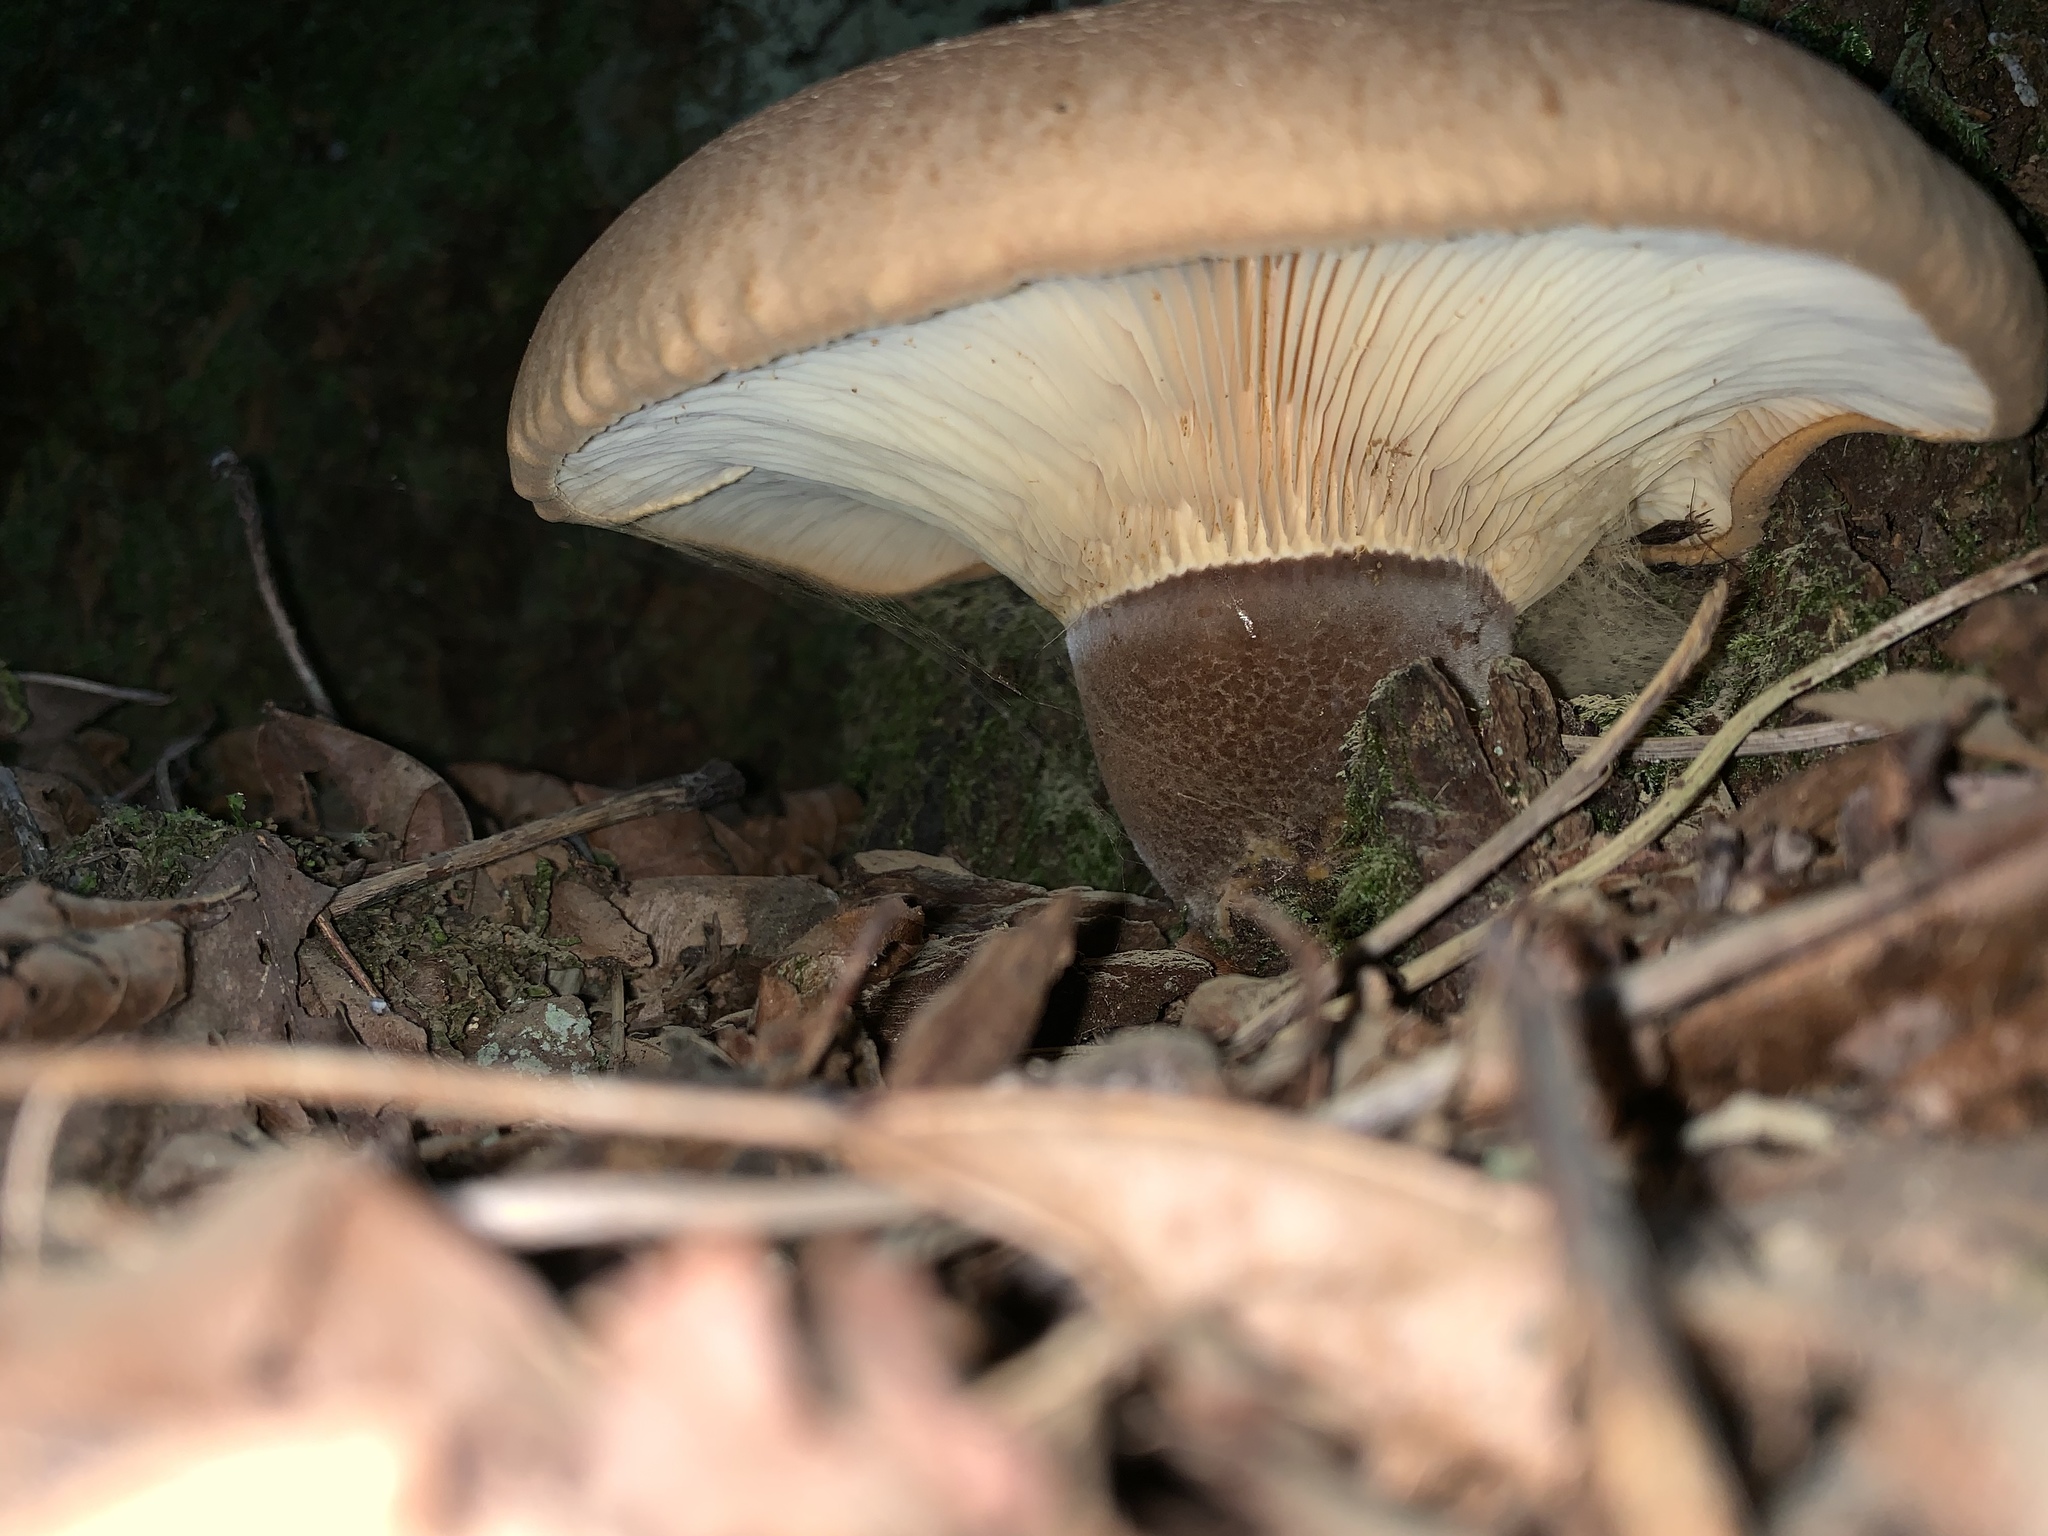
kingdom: Fungi
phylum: Basidiomycota
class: Agaricomycetes
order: Boletales
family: Tapinellaceae
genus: Tapinella
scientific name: Tapinella atrotomentosa
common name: Velvet rollrim
